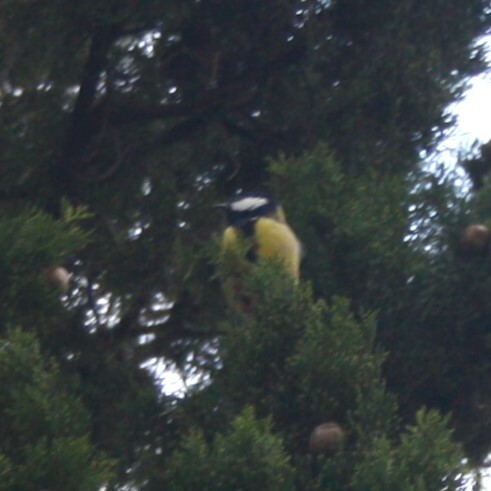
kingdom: Animalia
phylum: Chordata
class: Aves
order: Passeriformes
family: Paridae
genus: Parus
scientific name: Parus major
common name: Great tit
